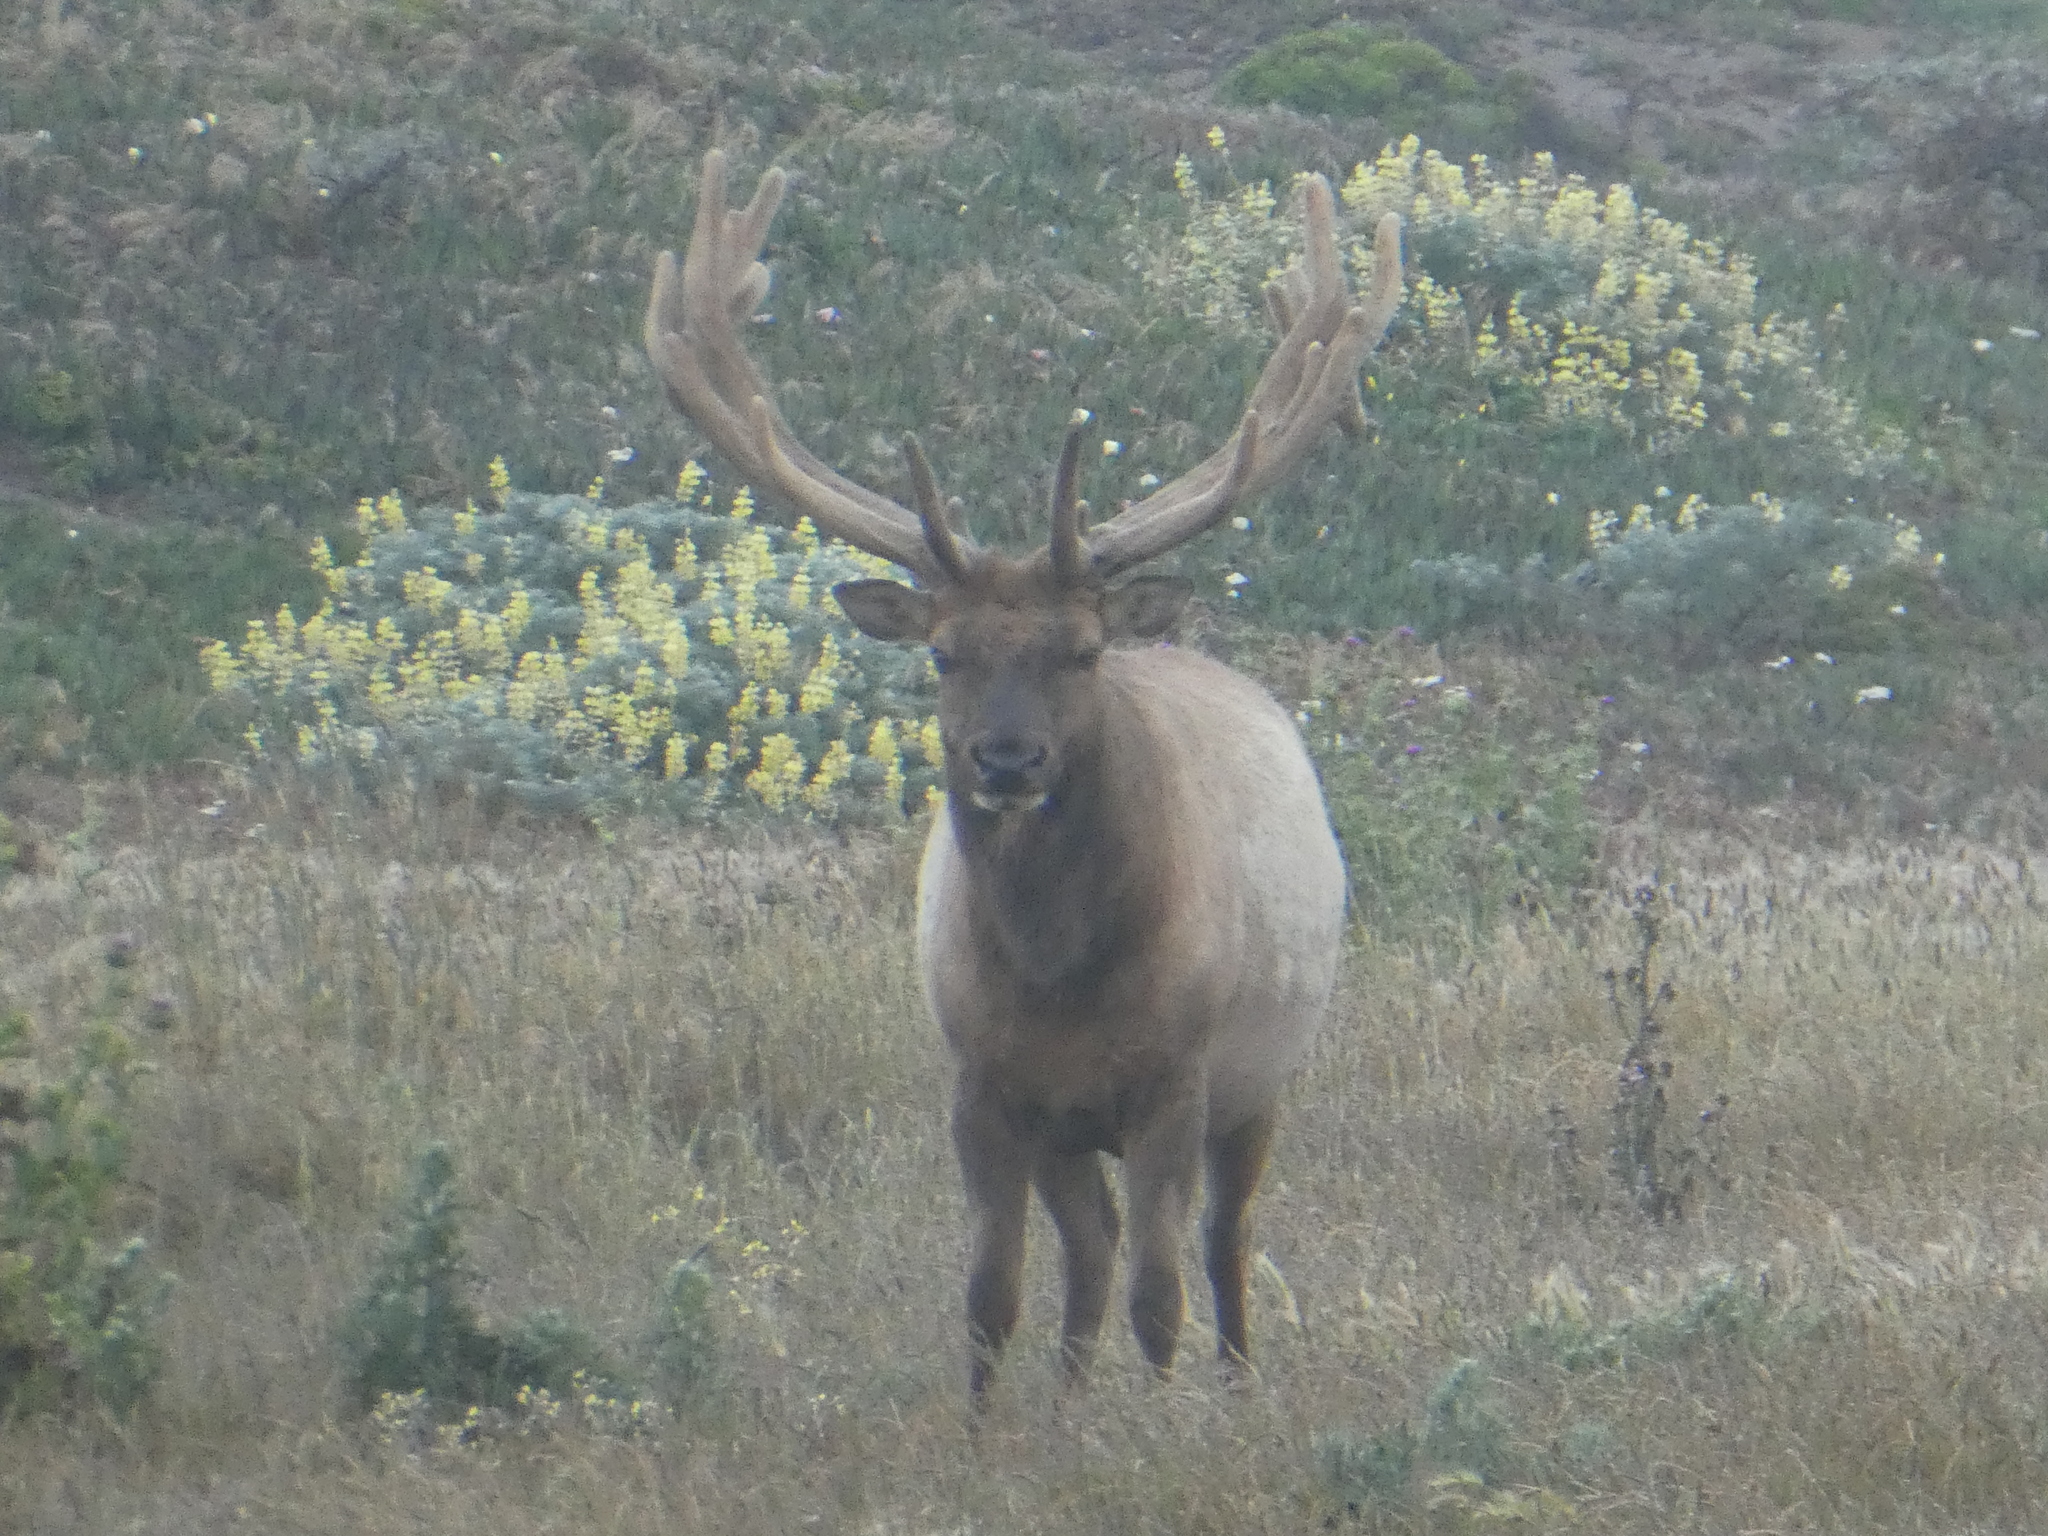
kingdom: Animalia
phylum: Chordata
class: Mammalia
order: Artiodactyla
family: Cervidae
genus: Cervus
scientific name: Cervus elaphus
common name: Red deer
